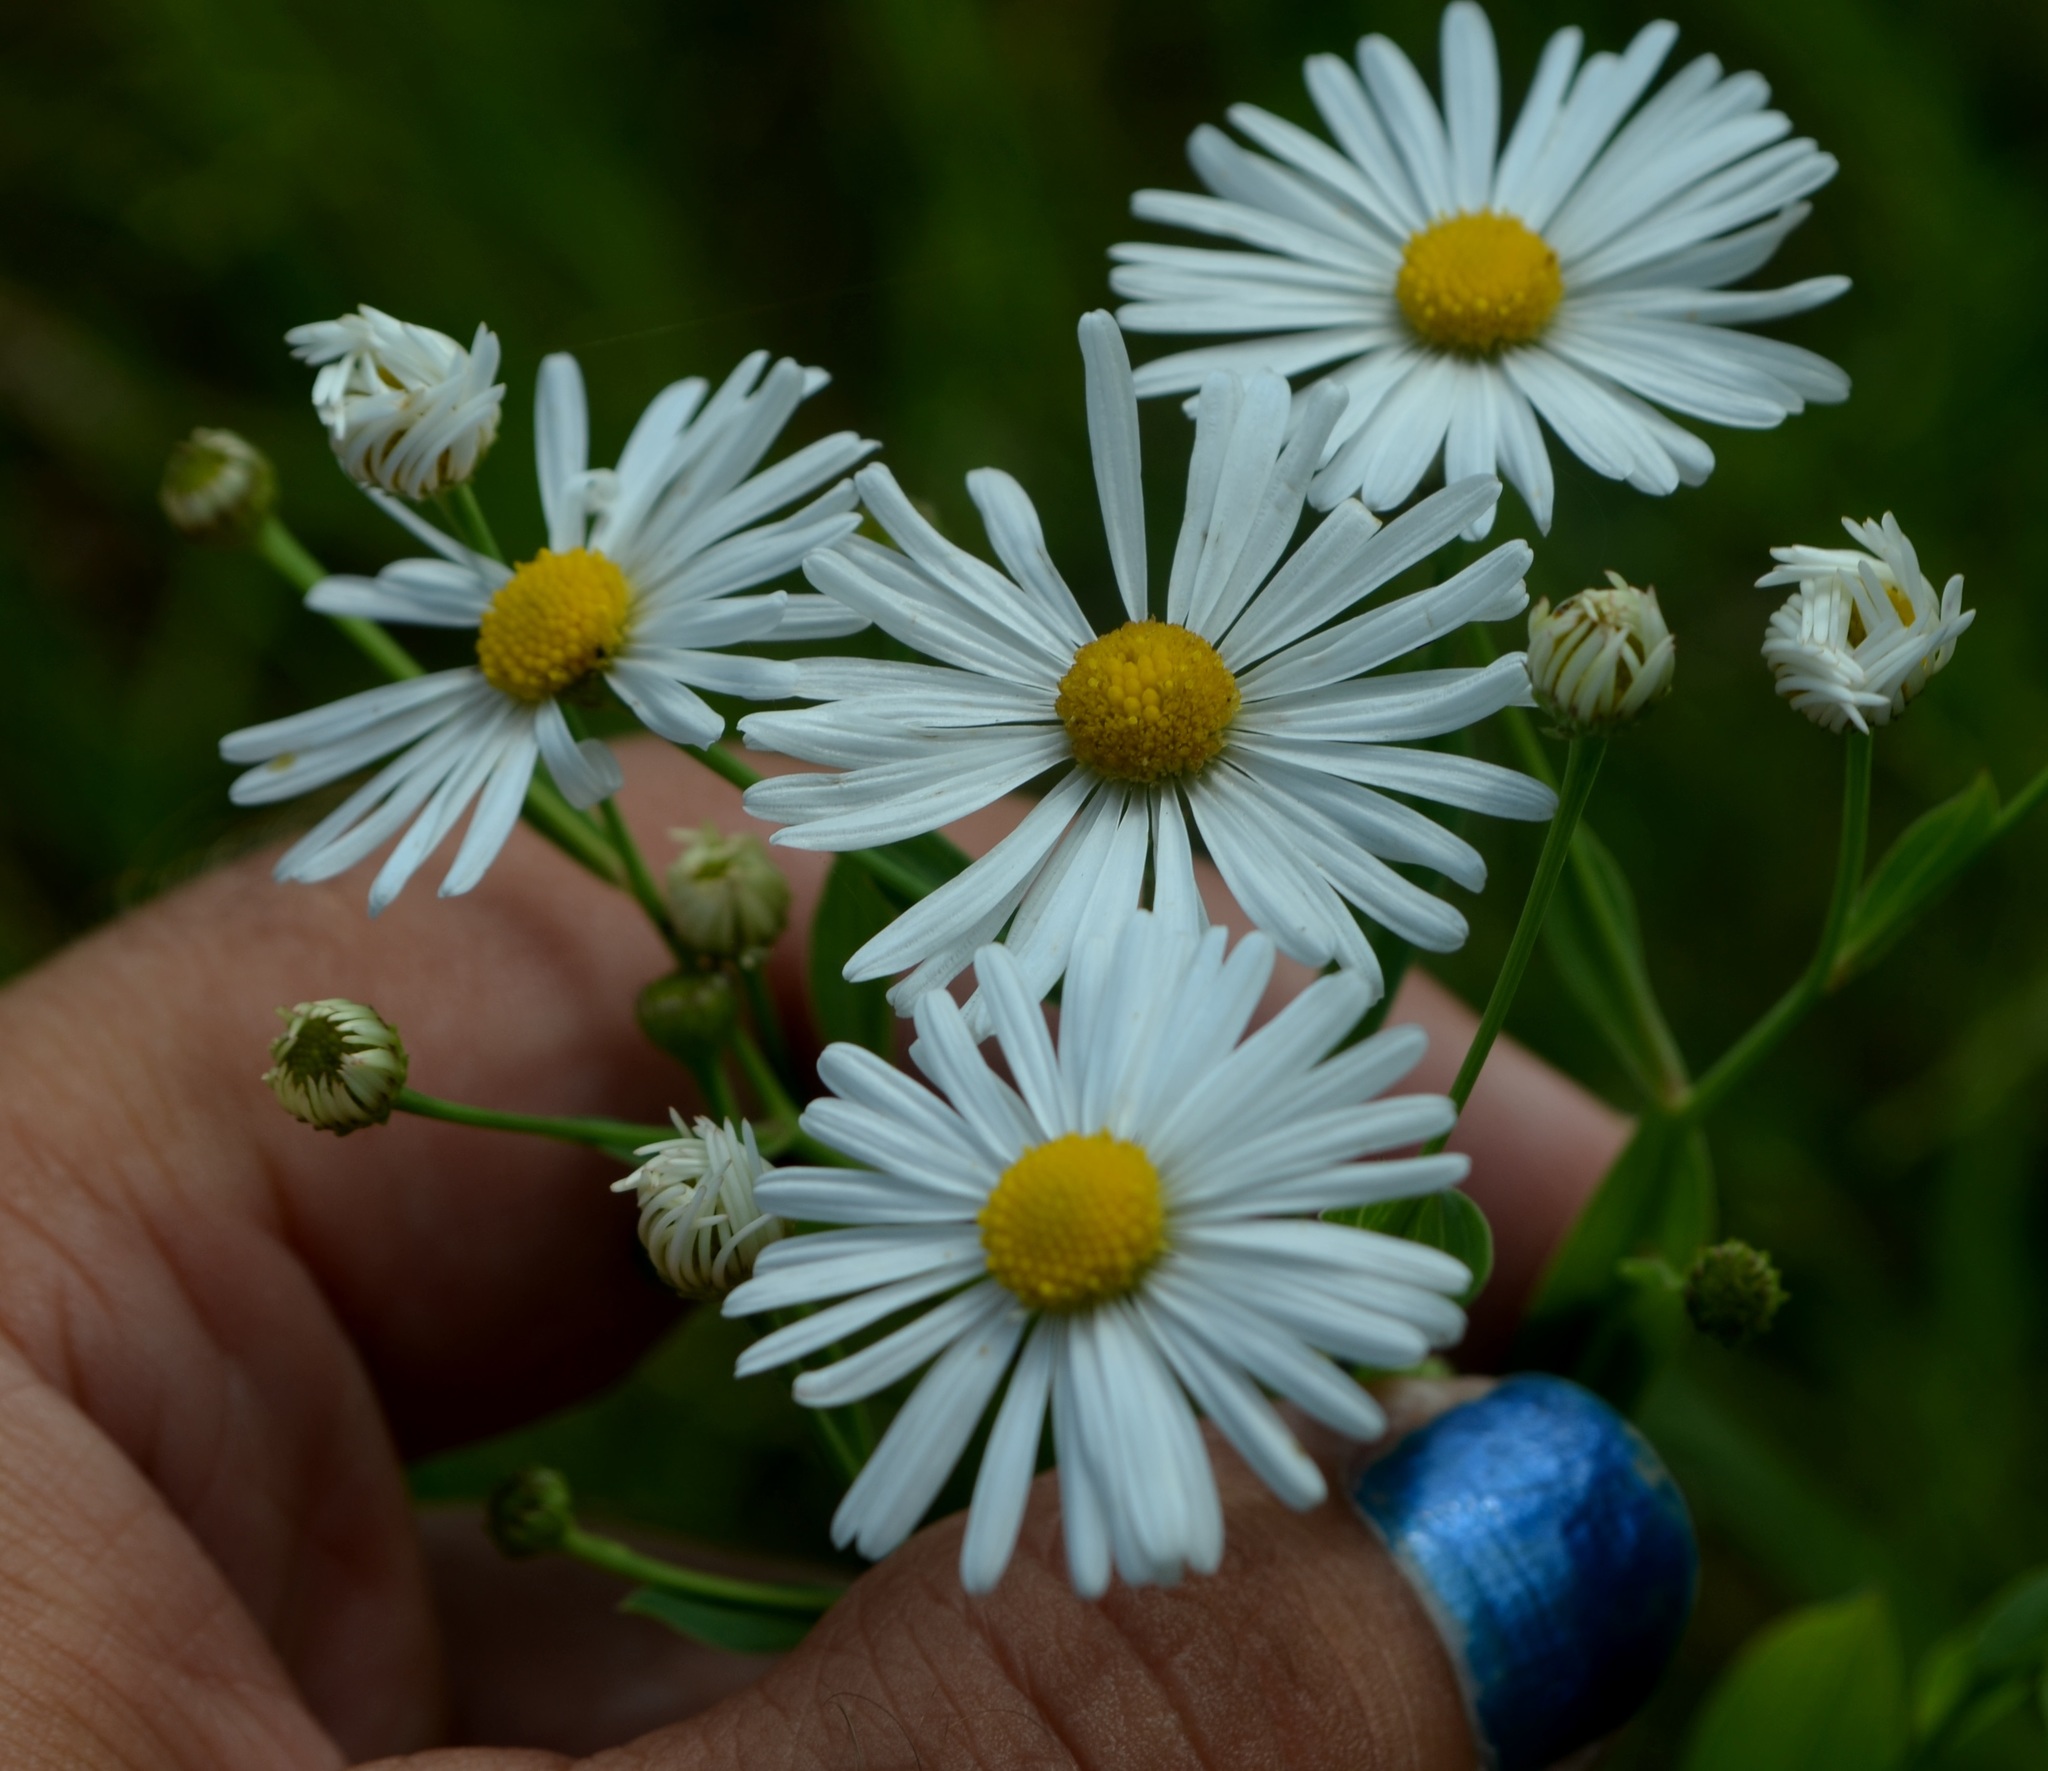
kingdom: Plantae
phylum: Tracheophyta
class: Magnoliopsida
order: Asterales
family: Asteraceae
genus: Boltonia
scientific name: Boltonia asteroides
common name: False chamomile
